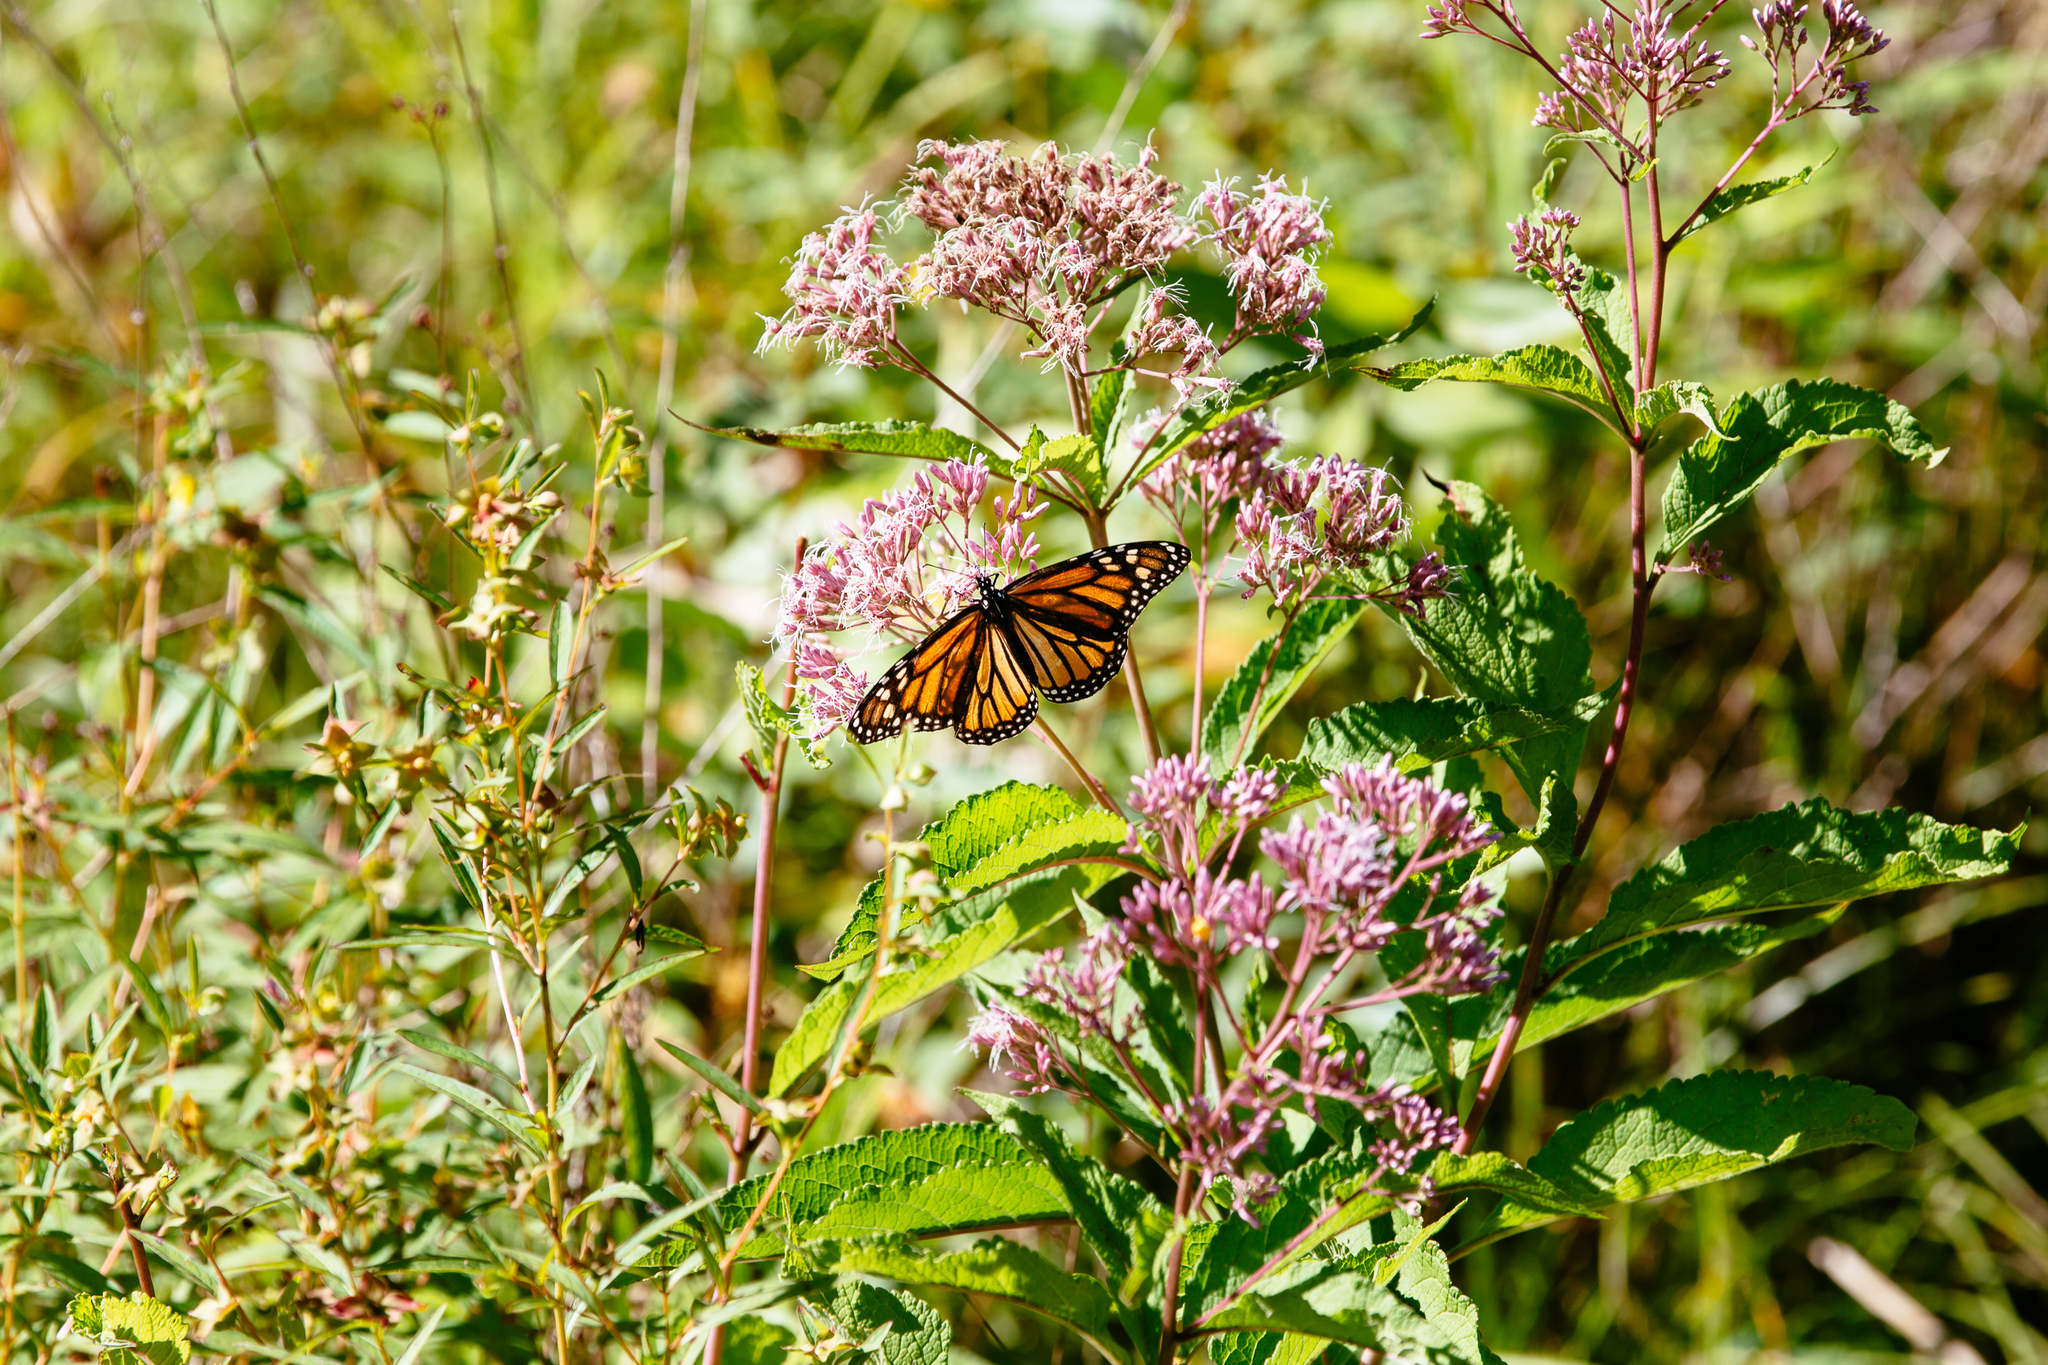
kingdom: Animalia
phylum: Arthropoda
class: Insecta
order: Lepidoptera
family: Nymphalidae
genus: Danaus
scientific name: Danaus plexippus
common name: Monarch
